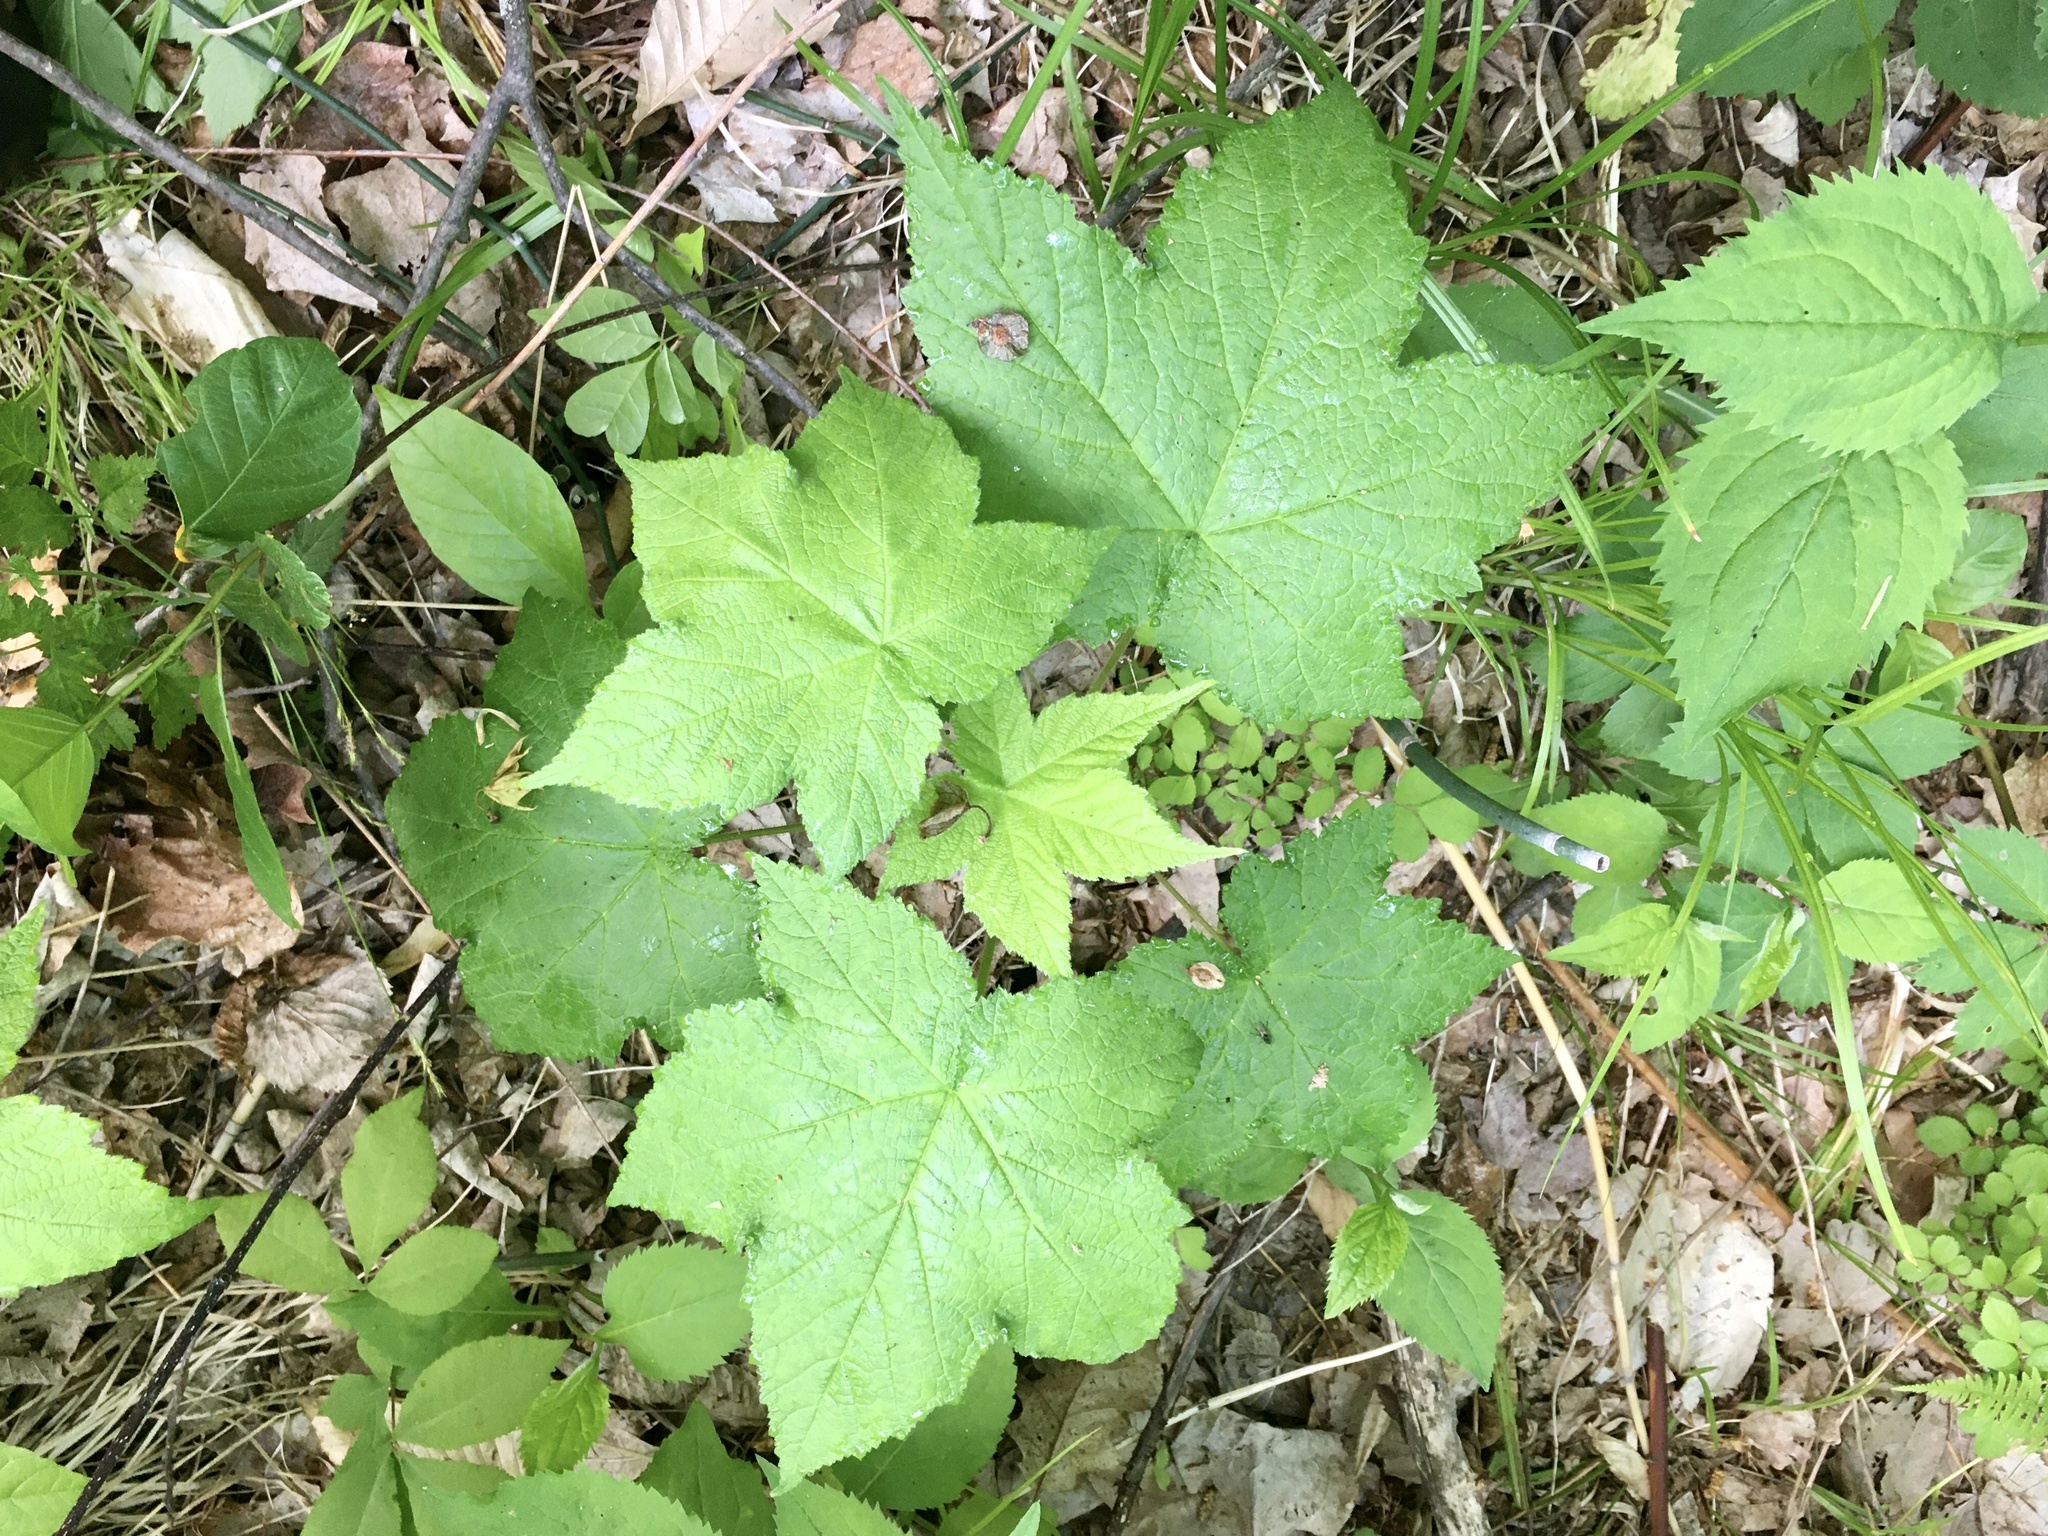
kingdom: Plantae
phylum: Tracheophyta
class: Magnoliopsida
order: Rosales
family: Rosaceae
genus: Rubus
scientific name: Rubus odoratus
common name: Purple-flowered raspberry
